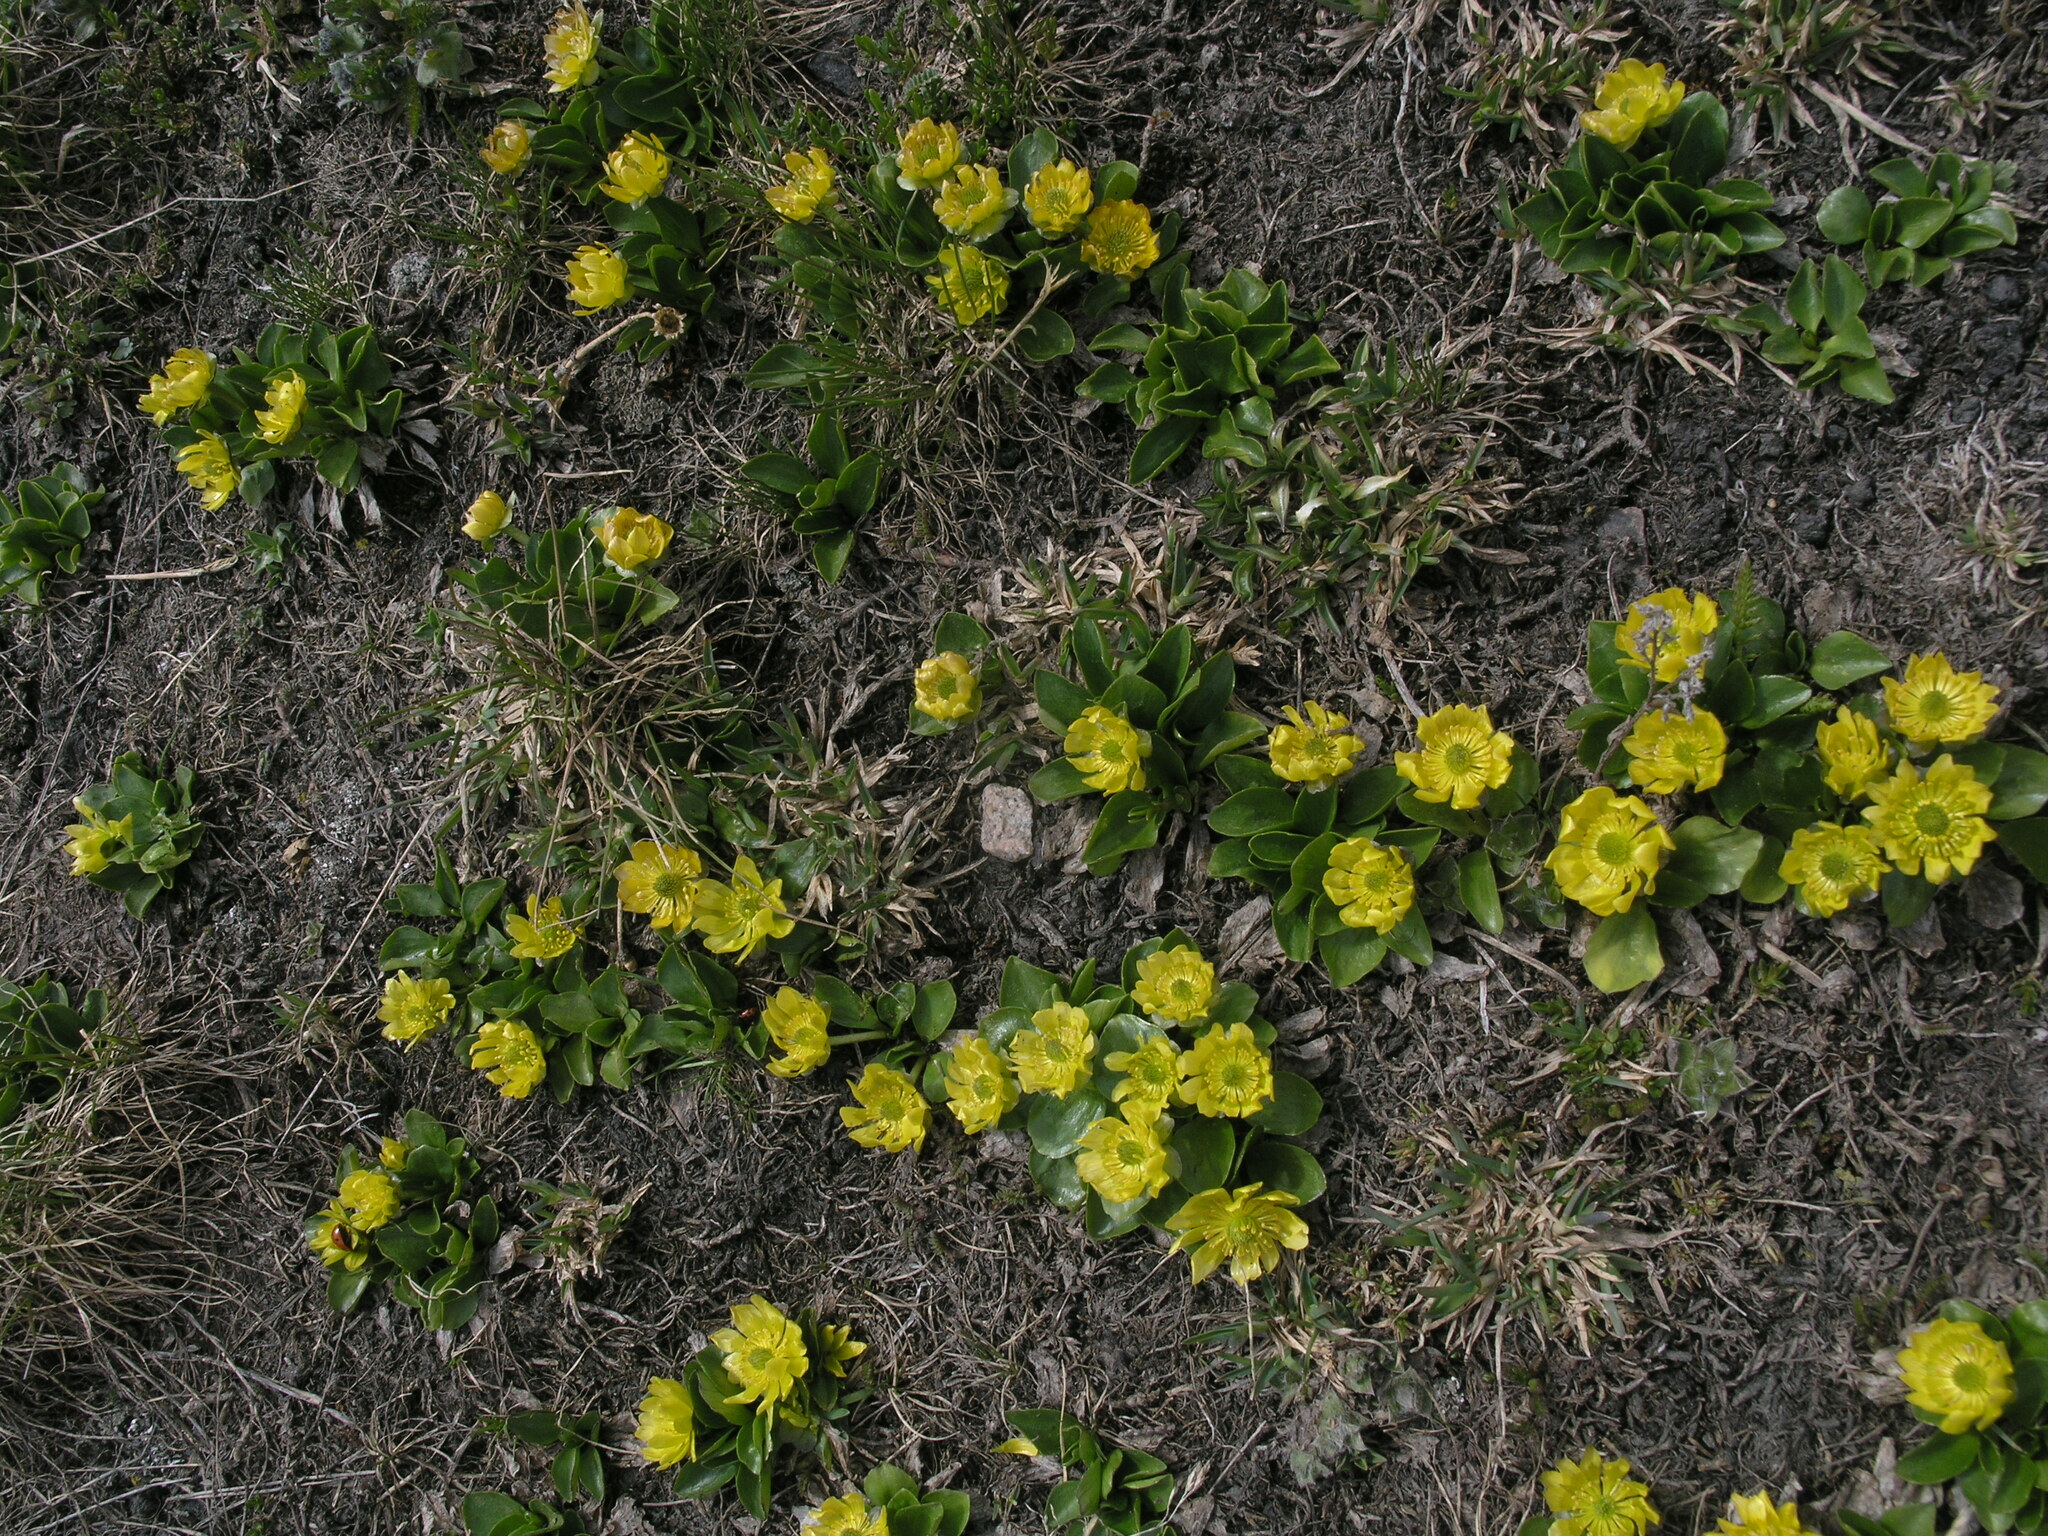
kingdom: Plantae
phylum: Tracheophyta
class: Magnoliopsida
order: Ranunculales
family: Ranunculaceae
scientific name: Ranunculaceae
